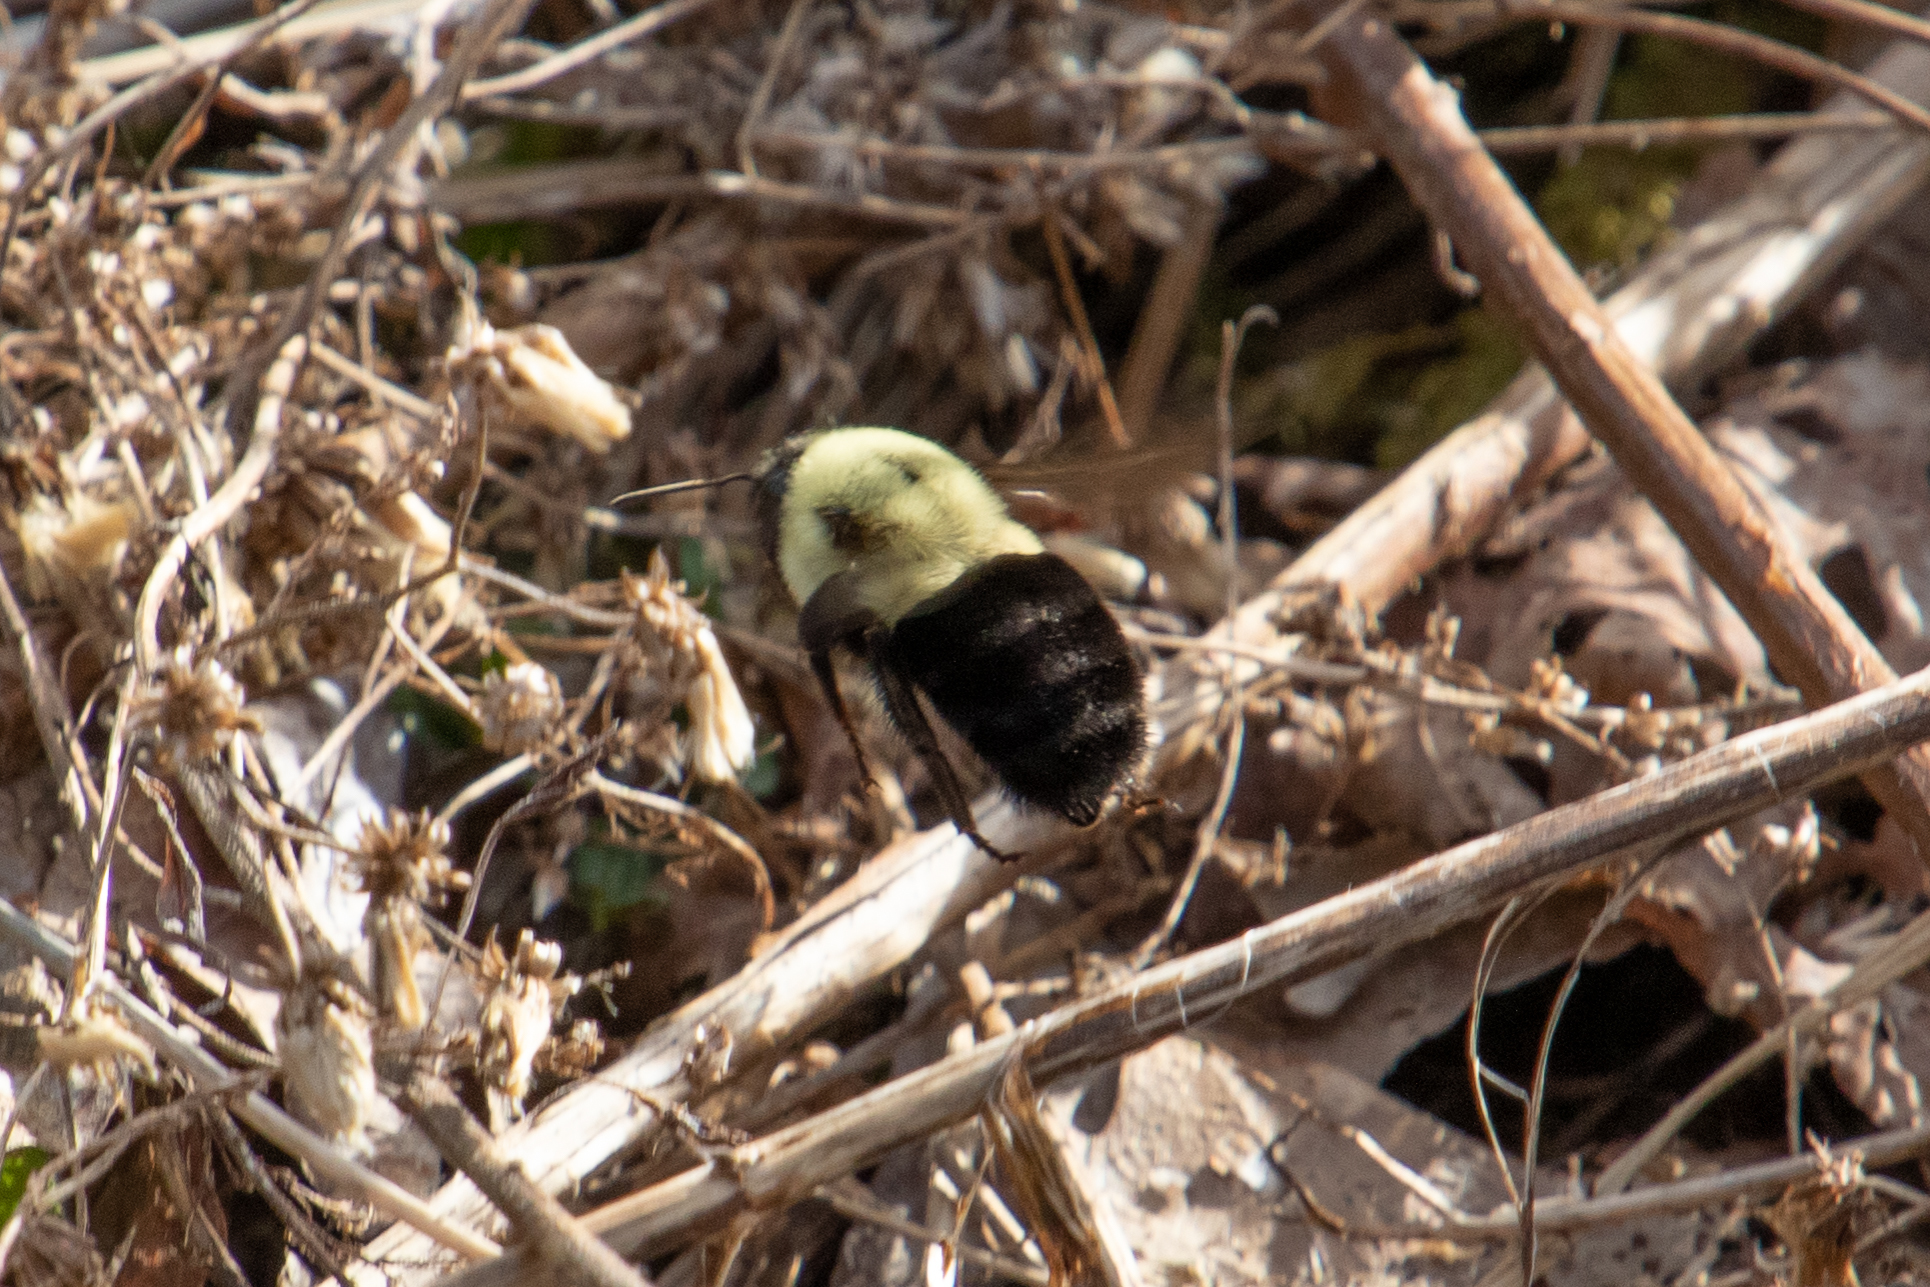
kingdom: Animalia
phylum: Arthropoda
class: Insecta
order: Hymenoptera
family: Apidae
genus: Bombus
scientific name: Bombus impatiens
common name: Common eastern bumble bee
